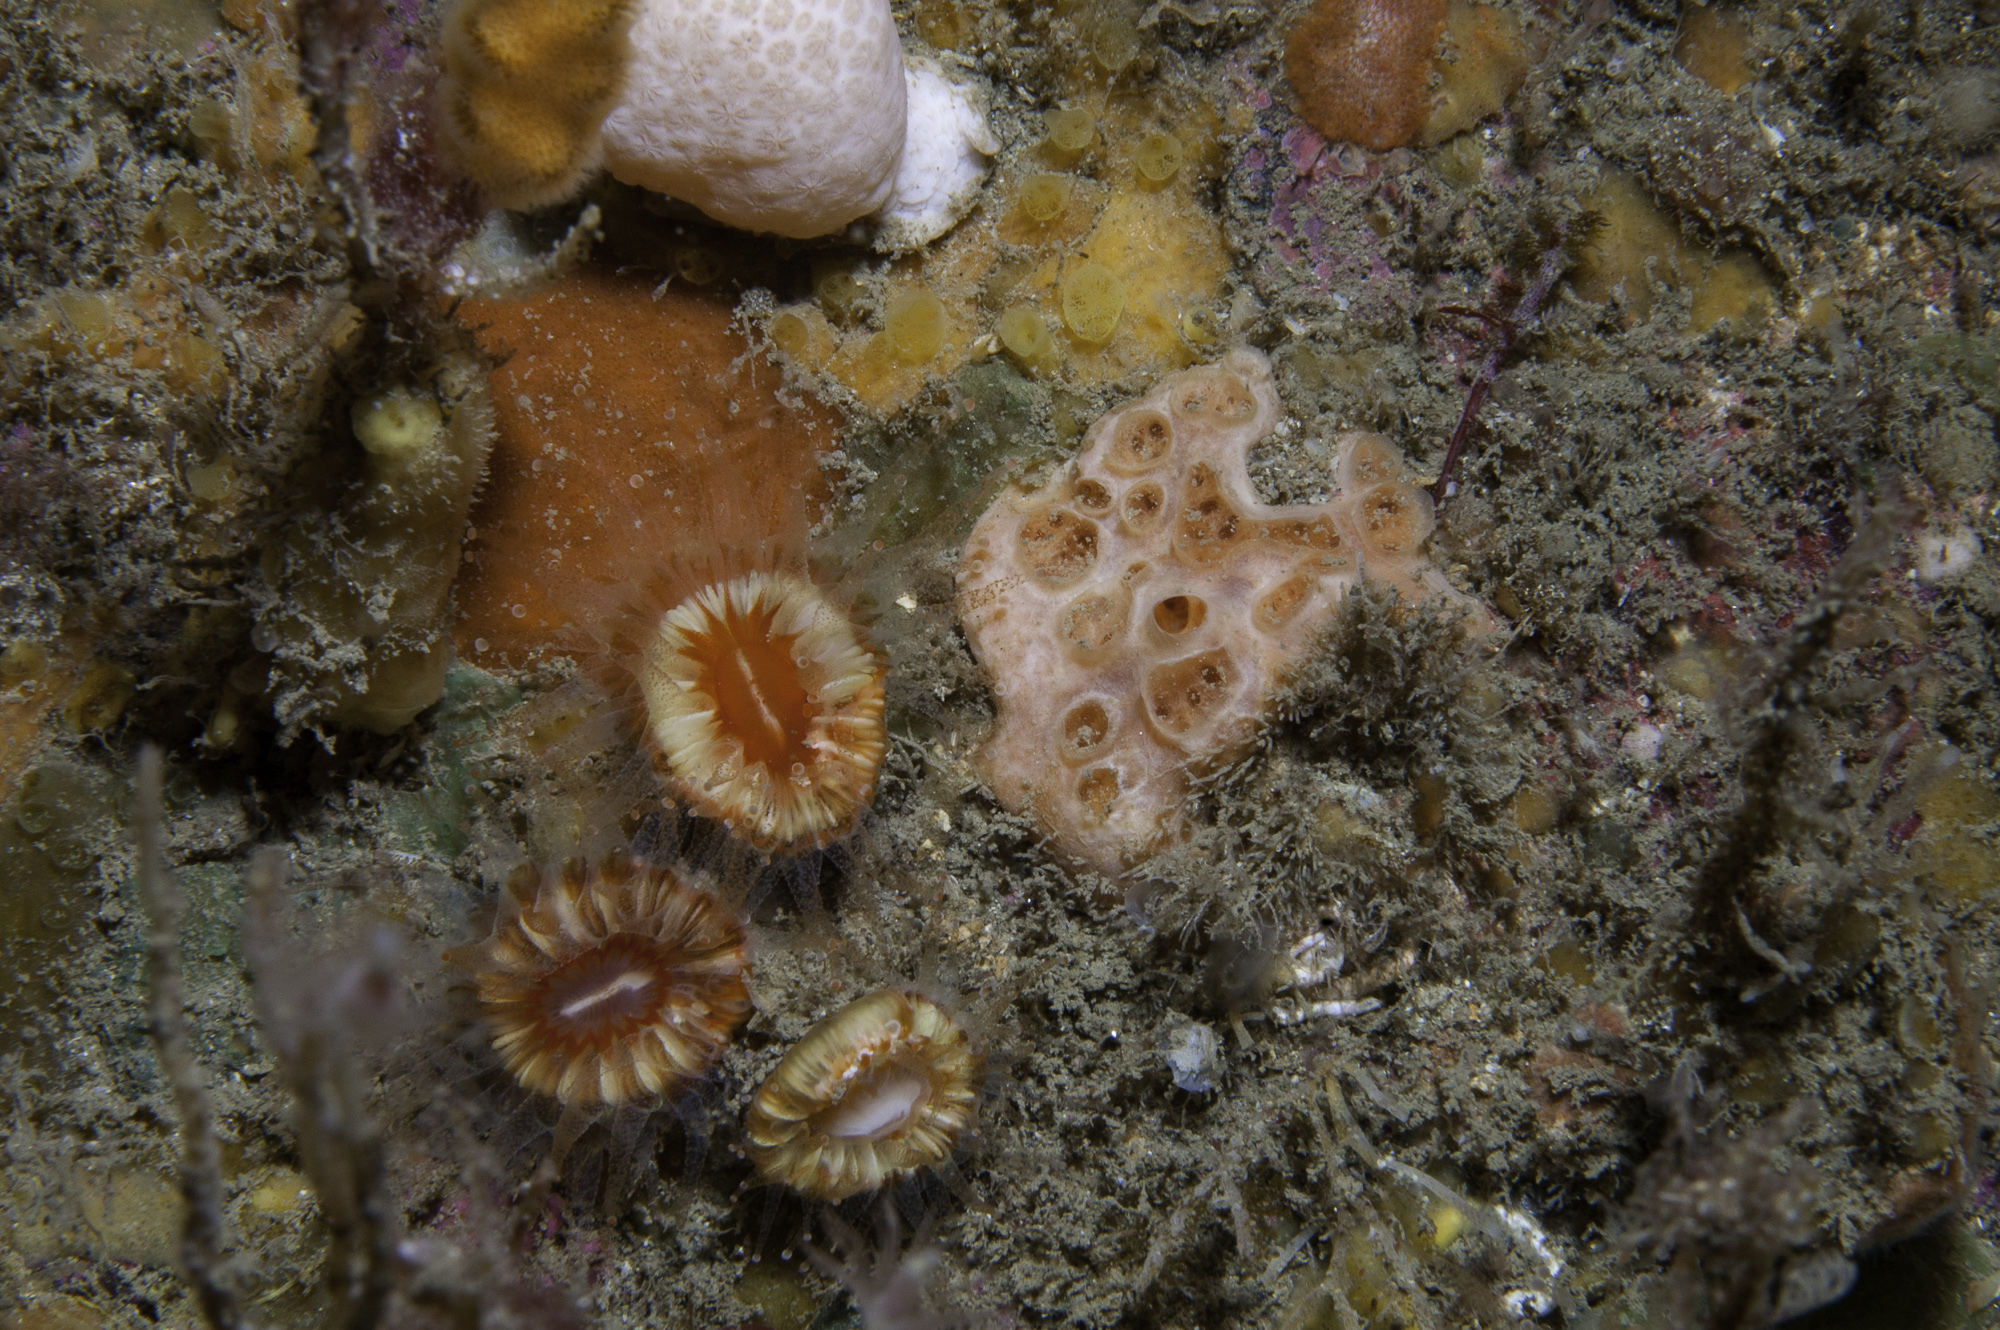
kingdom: Animalia
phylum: Porifera
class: Demospongiae
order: Poecilosclerida
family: Hymedesmiidae
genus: Hemimycale
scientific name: Hemimycale columella
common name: Crater sponge
